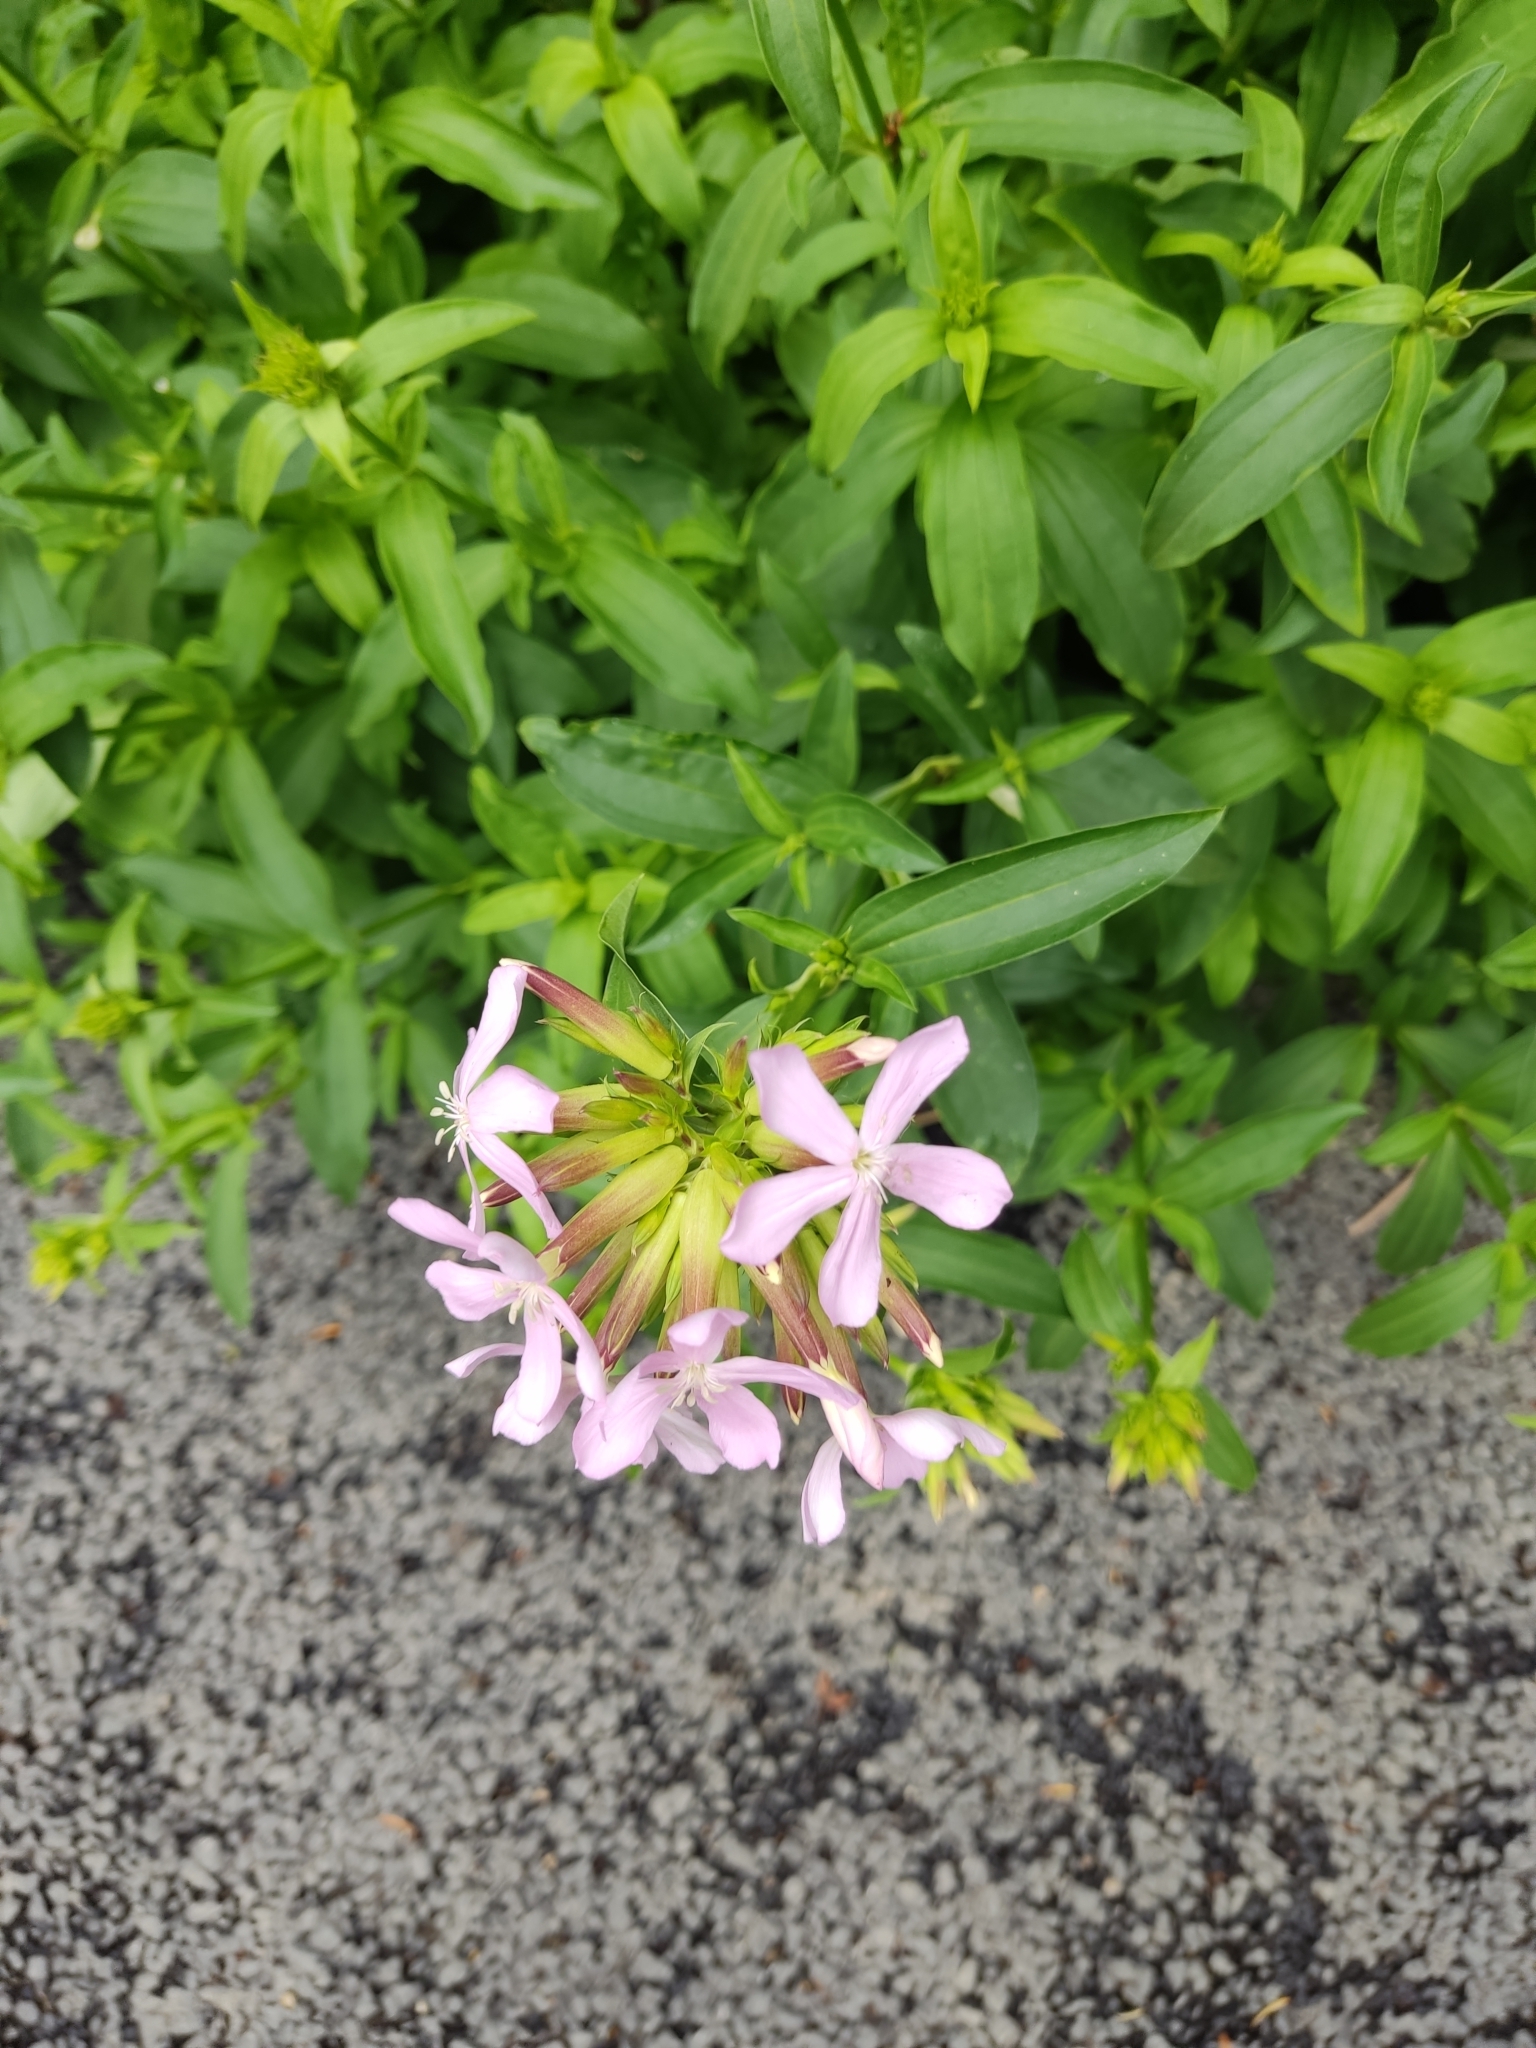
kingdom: Plantae
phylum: Tracheophyta
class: Magnoliopsida
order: Caryophyllales
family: Caryophyllaceae
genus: Saponaria
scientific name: Saponaria officinalis
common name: Soapwort
